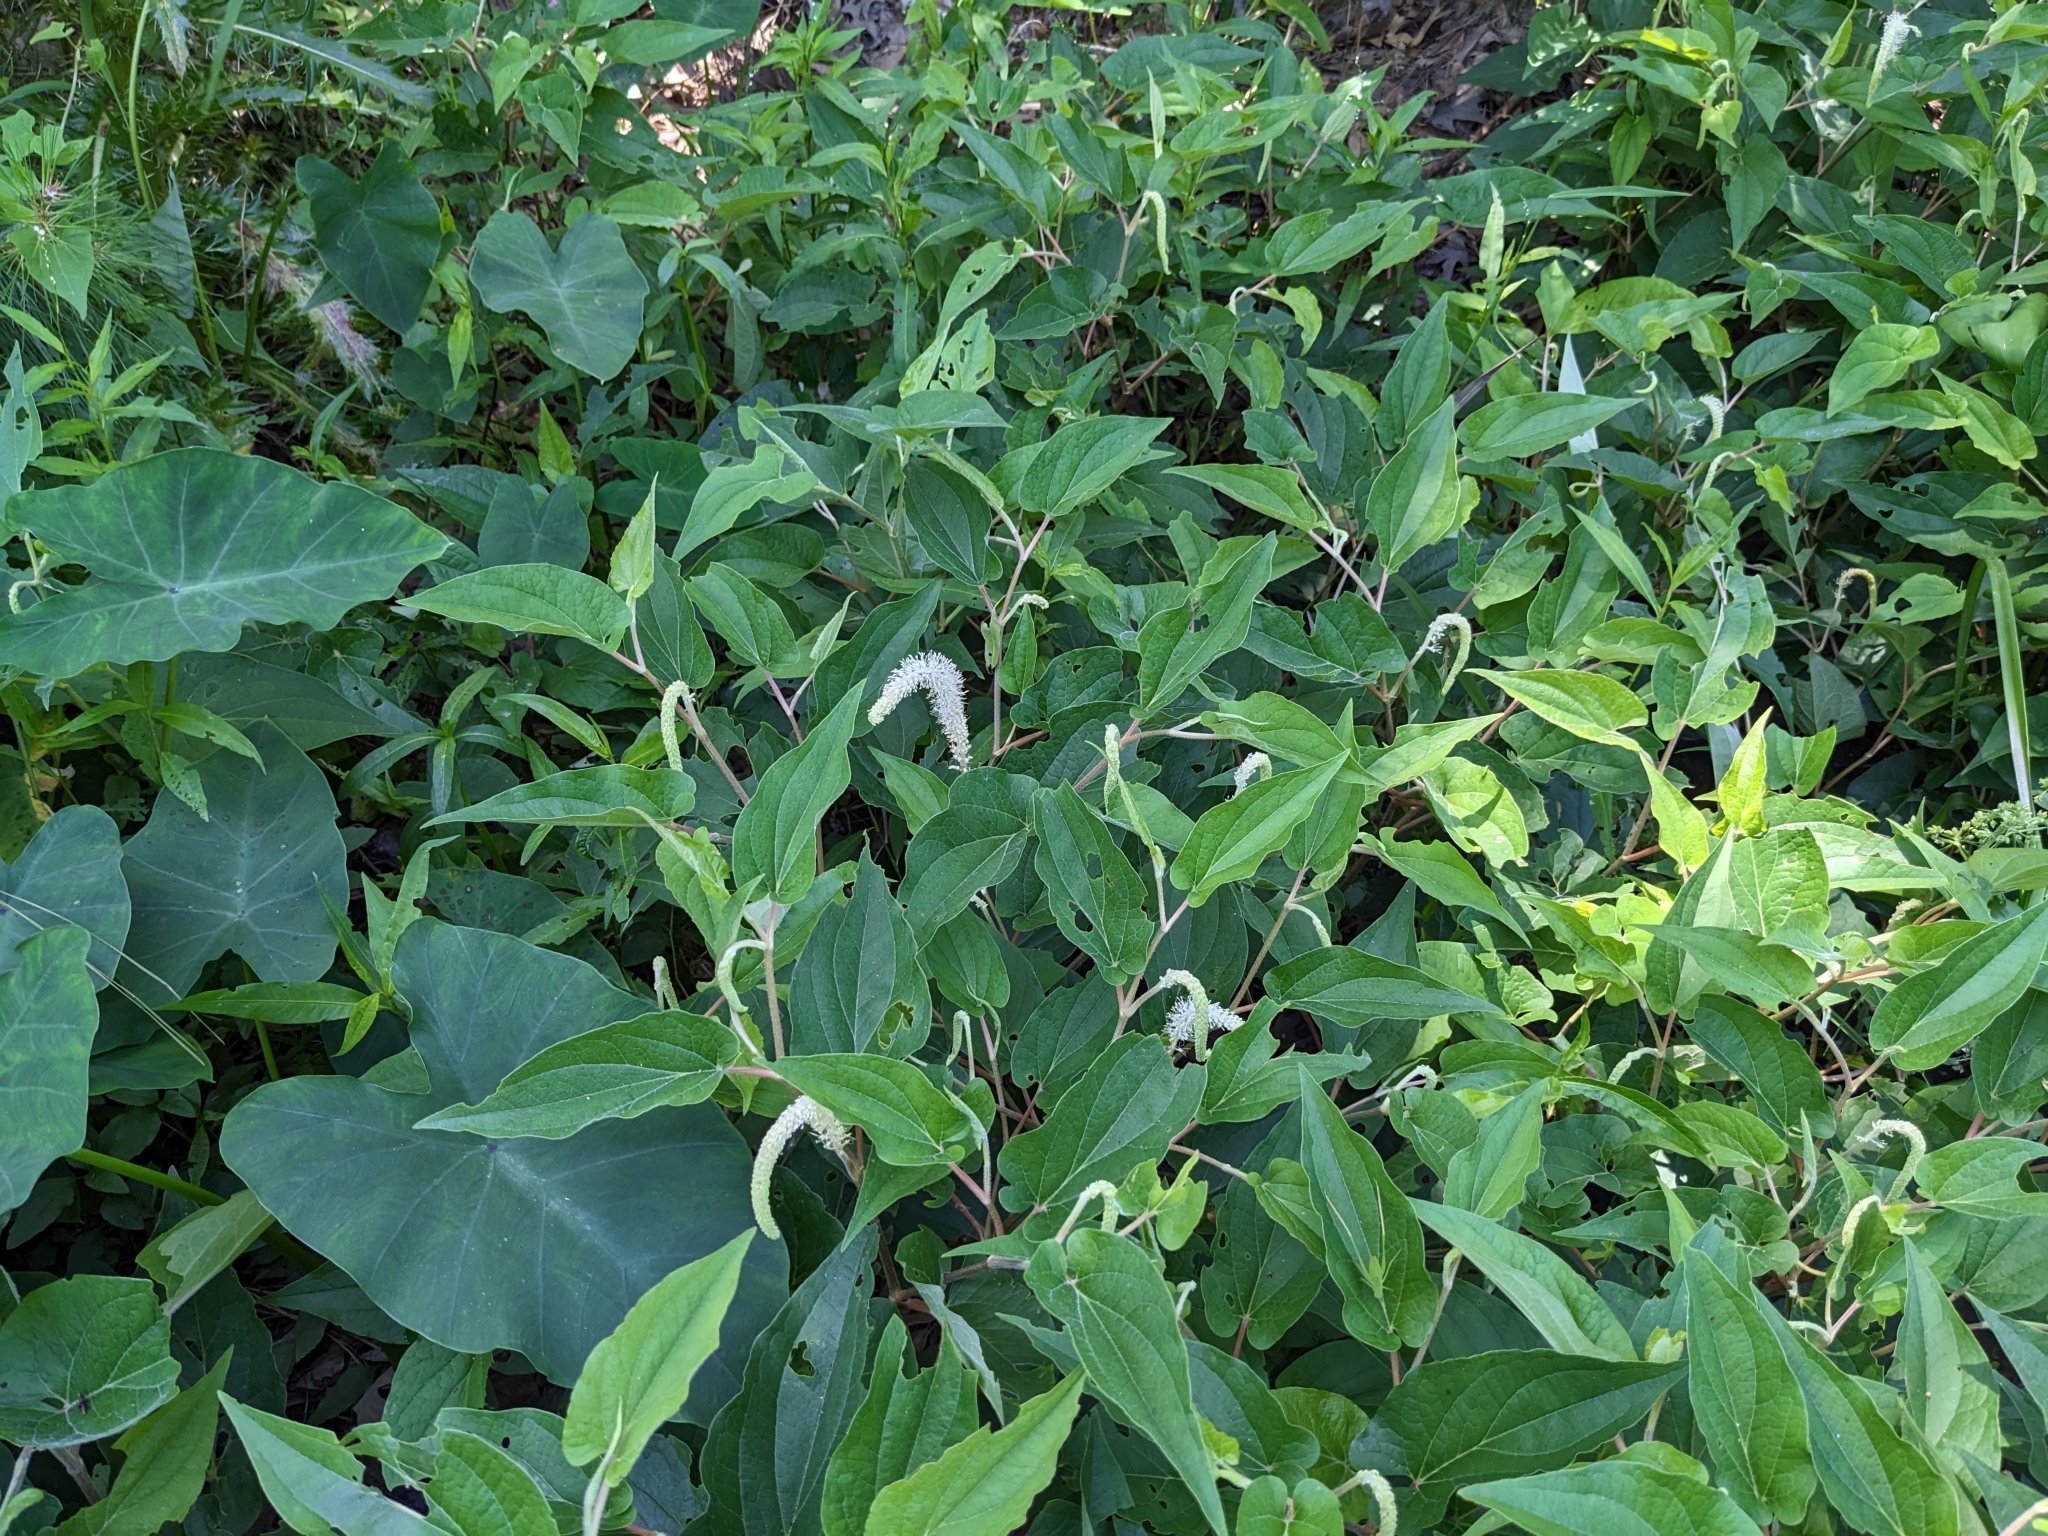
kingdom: Plantae
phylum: Tracheophyta
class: Magnoliopsida
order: Piperales
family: Saururaceae
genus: Saururus
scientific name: Saururus cernuus
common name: Lizard's-tail
